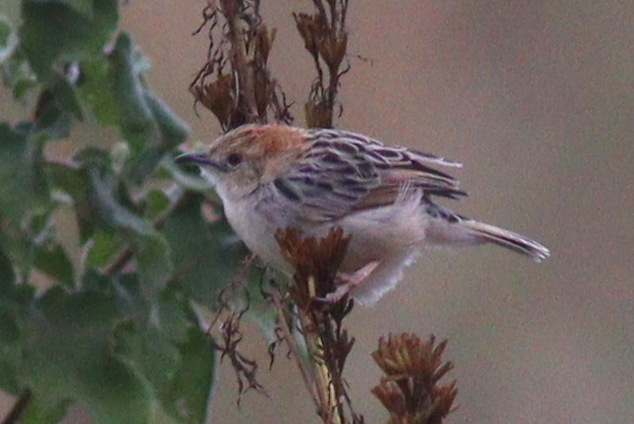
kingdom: Animalia
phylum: Chordata
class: Aves
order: Passeriformes
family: Cisticolidae
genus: Cisticola
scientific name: Cisticola robustus
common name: Stout cisticola
